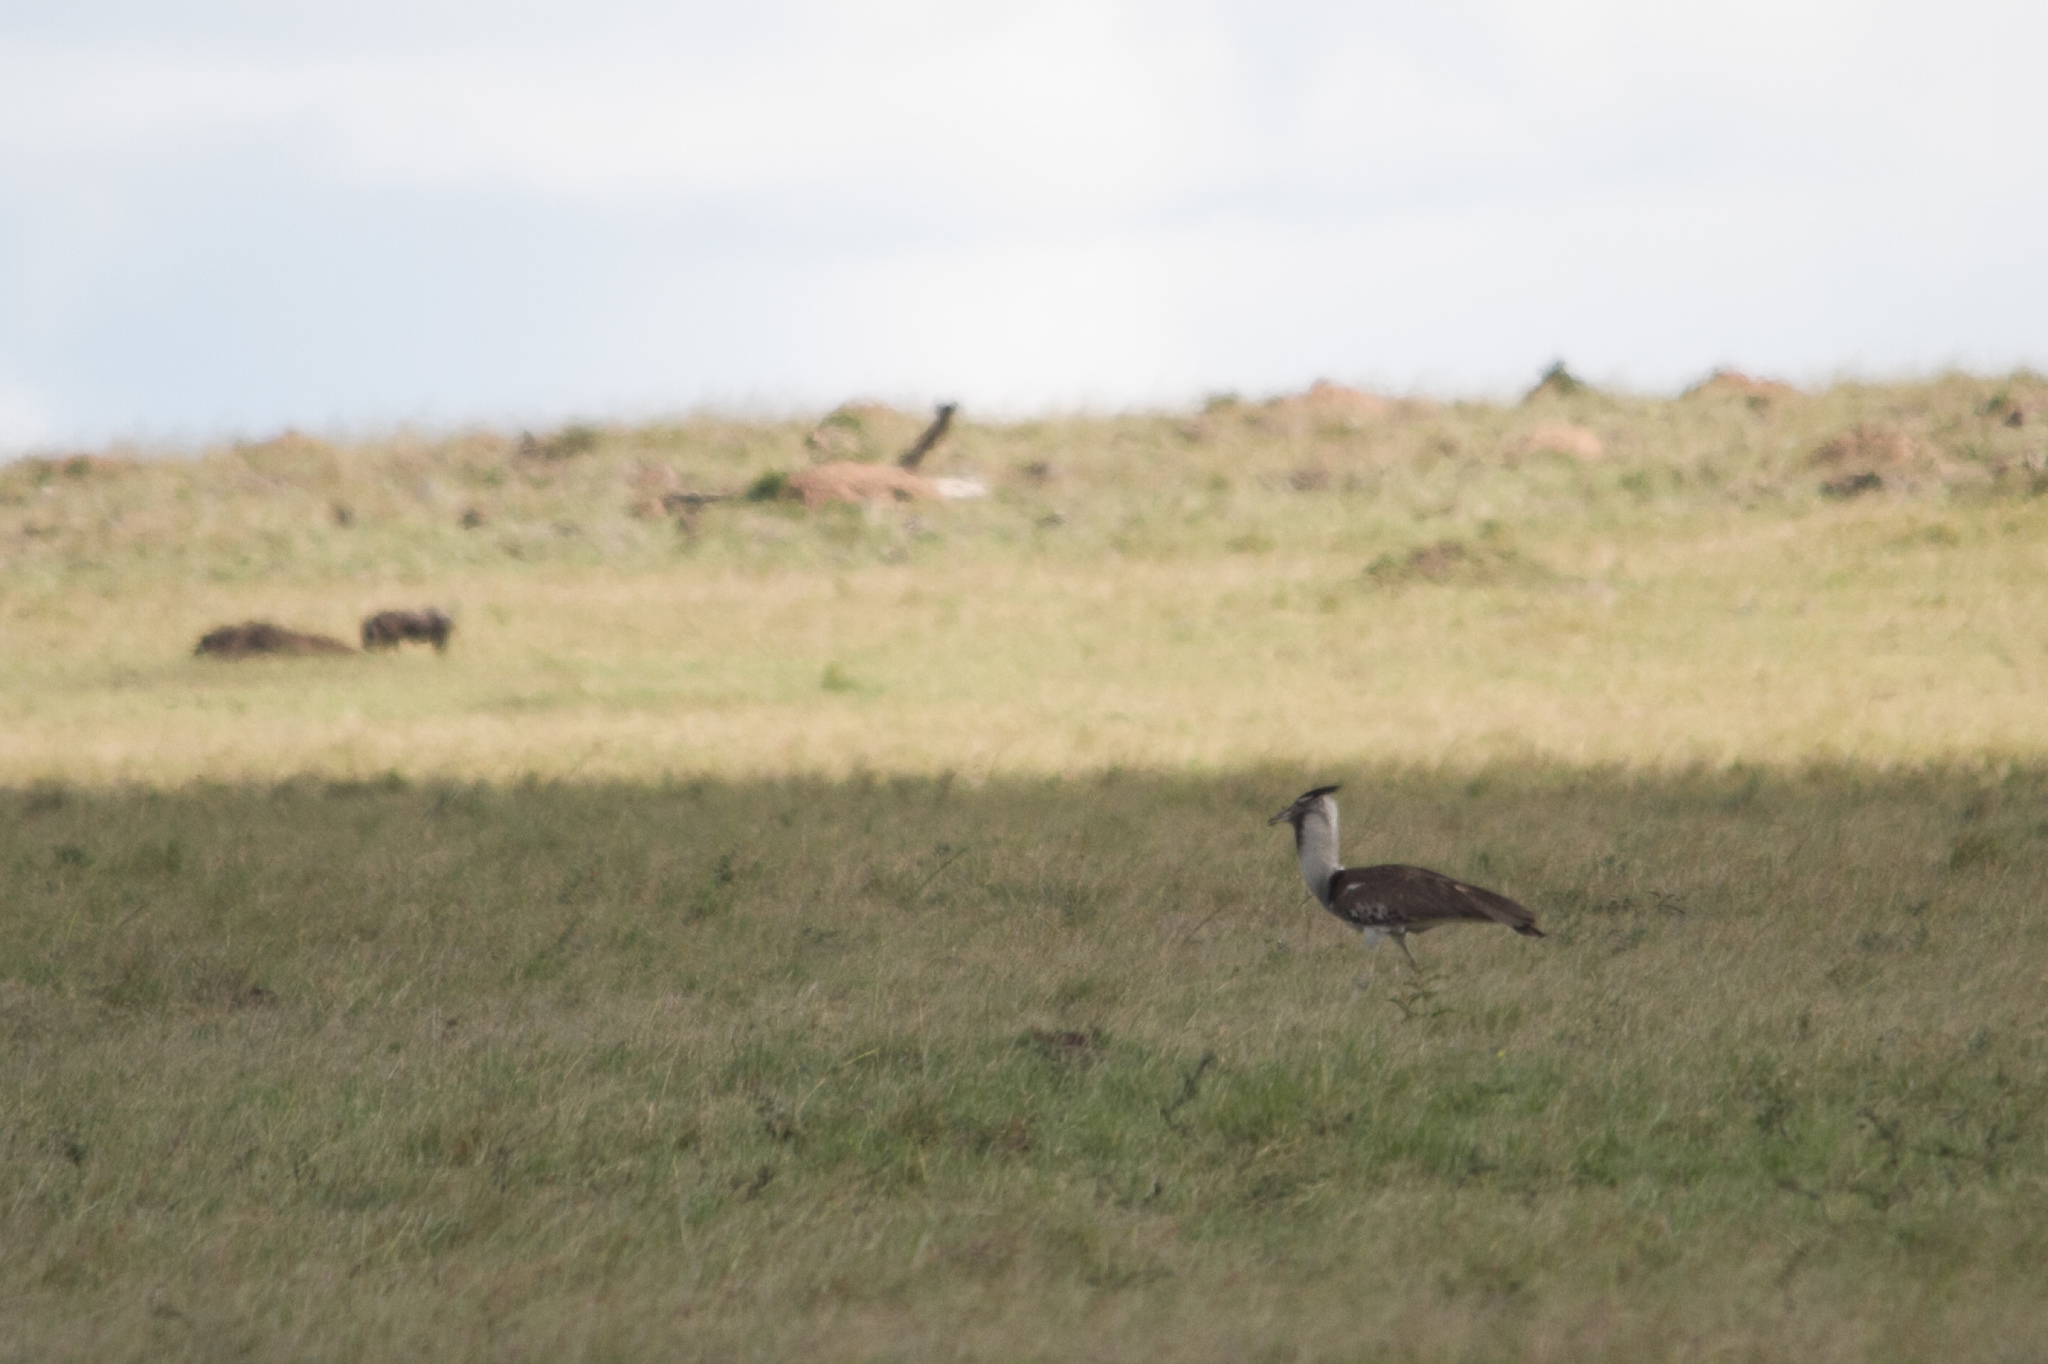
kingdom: Animalia
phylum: Chordata
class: Aves
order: Otidiformes
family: Otididae
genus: Ardeotis
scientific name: Ardeotis kori
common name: Kori bustard
